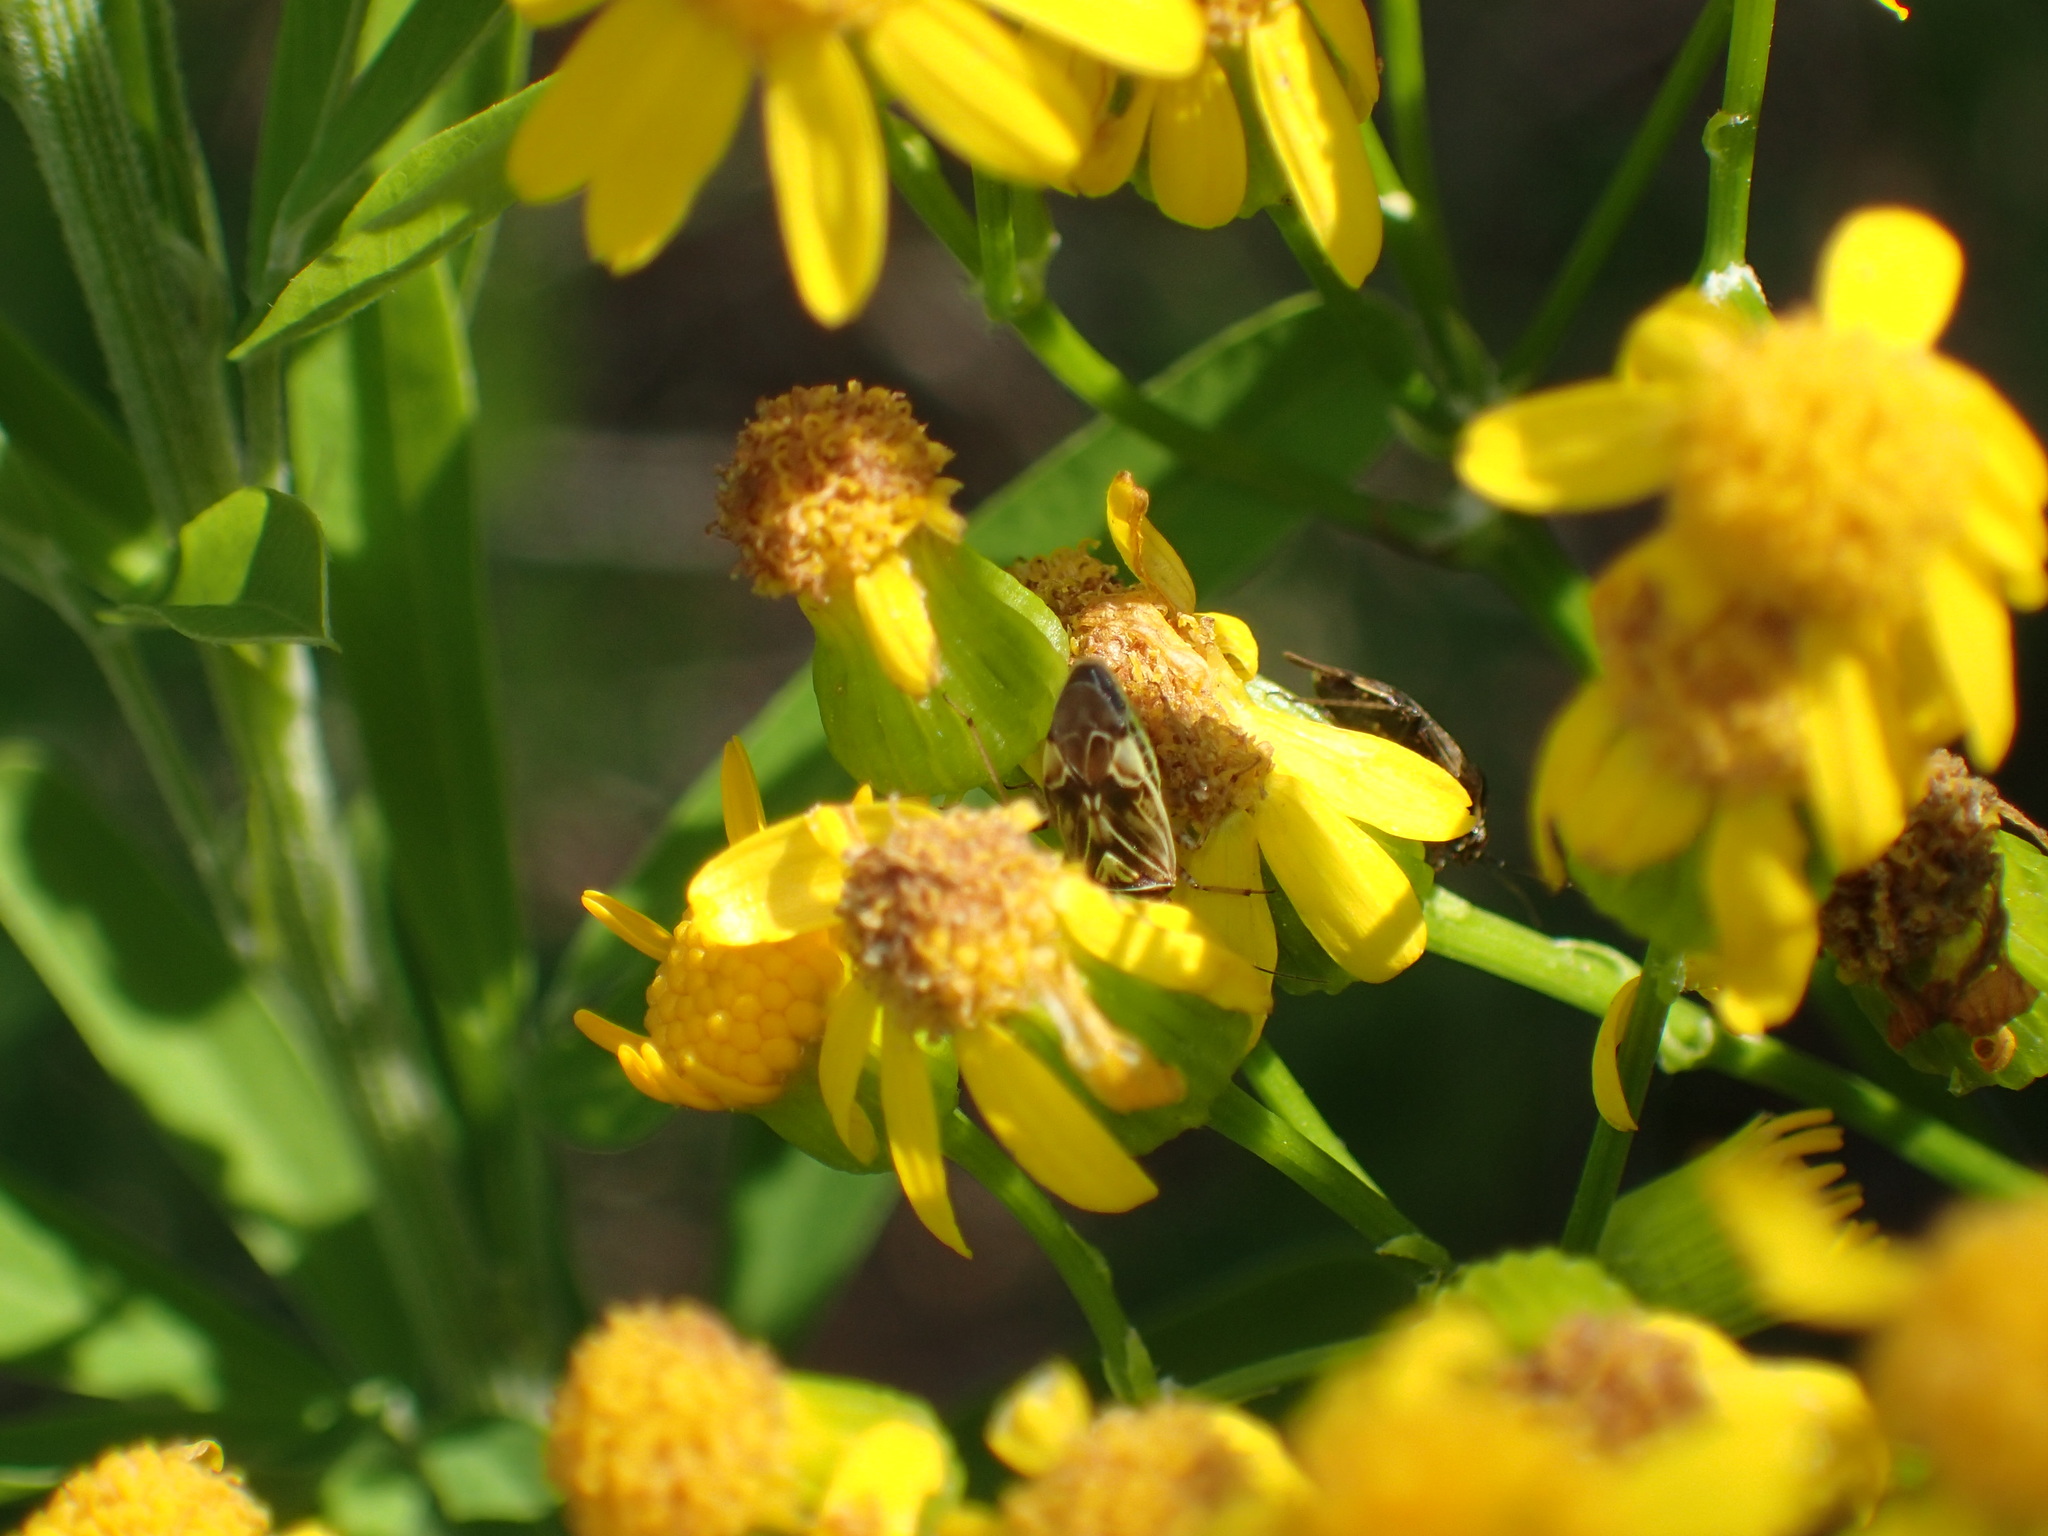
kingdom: Animalia
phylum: Arthropoda
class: Insecta
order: Hemiptera
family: Miridae
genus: Lygus
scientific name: Lygus lineolaris
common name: North american tarnished plant bug
